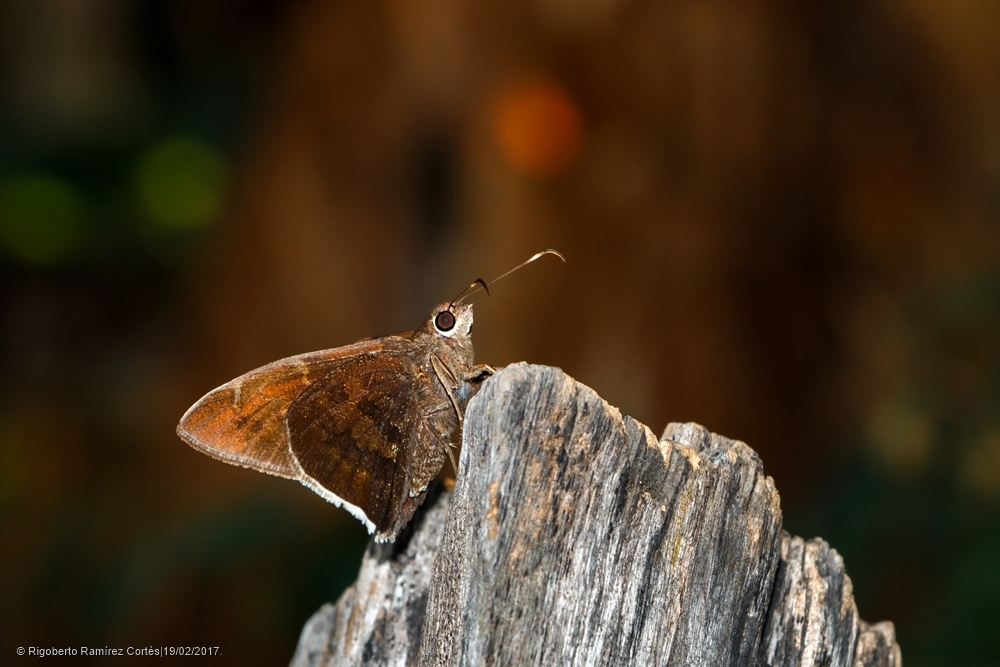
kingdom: Animalia
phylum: Arthropoda
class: Insecta
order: Lepidoptera
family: Hesperiidae
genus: Achalarus
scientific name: Achalarus Murgaria albociliatus
